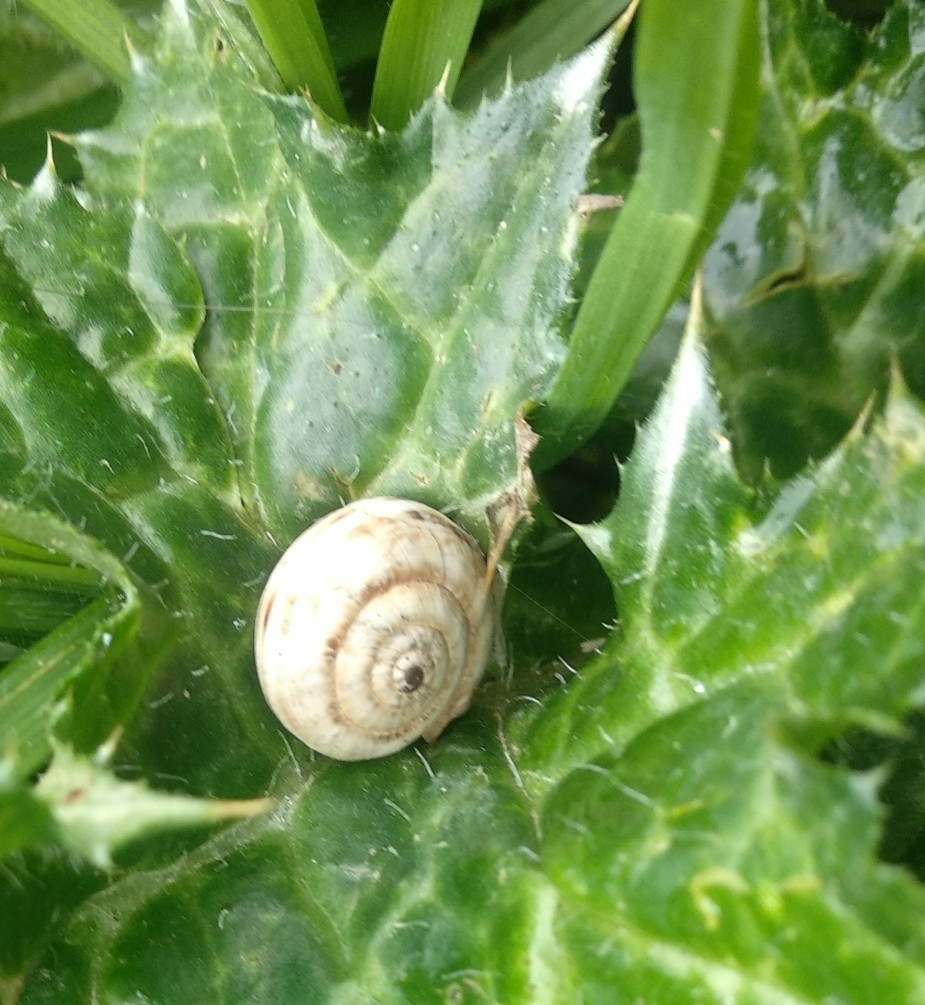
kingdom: Animalia
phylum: Mollusca
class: Gastropoda
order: Stylommatophora
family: Geomitridae
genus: Xerosecta
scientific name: Xerosecta cespitum
